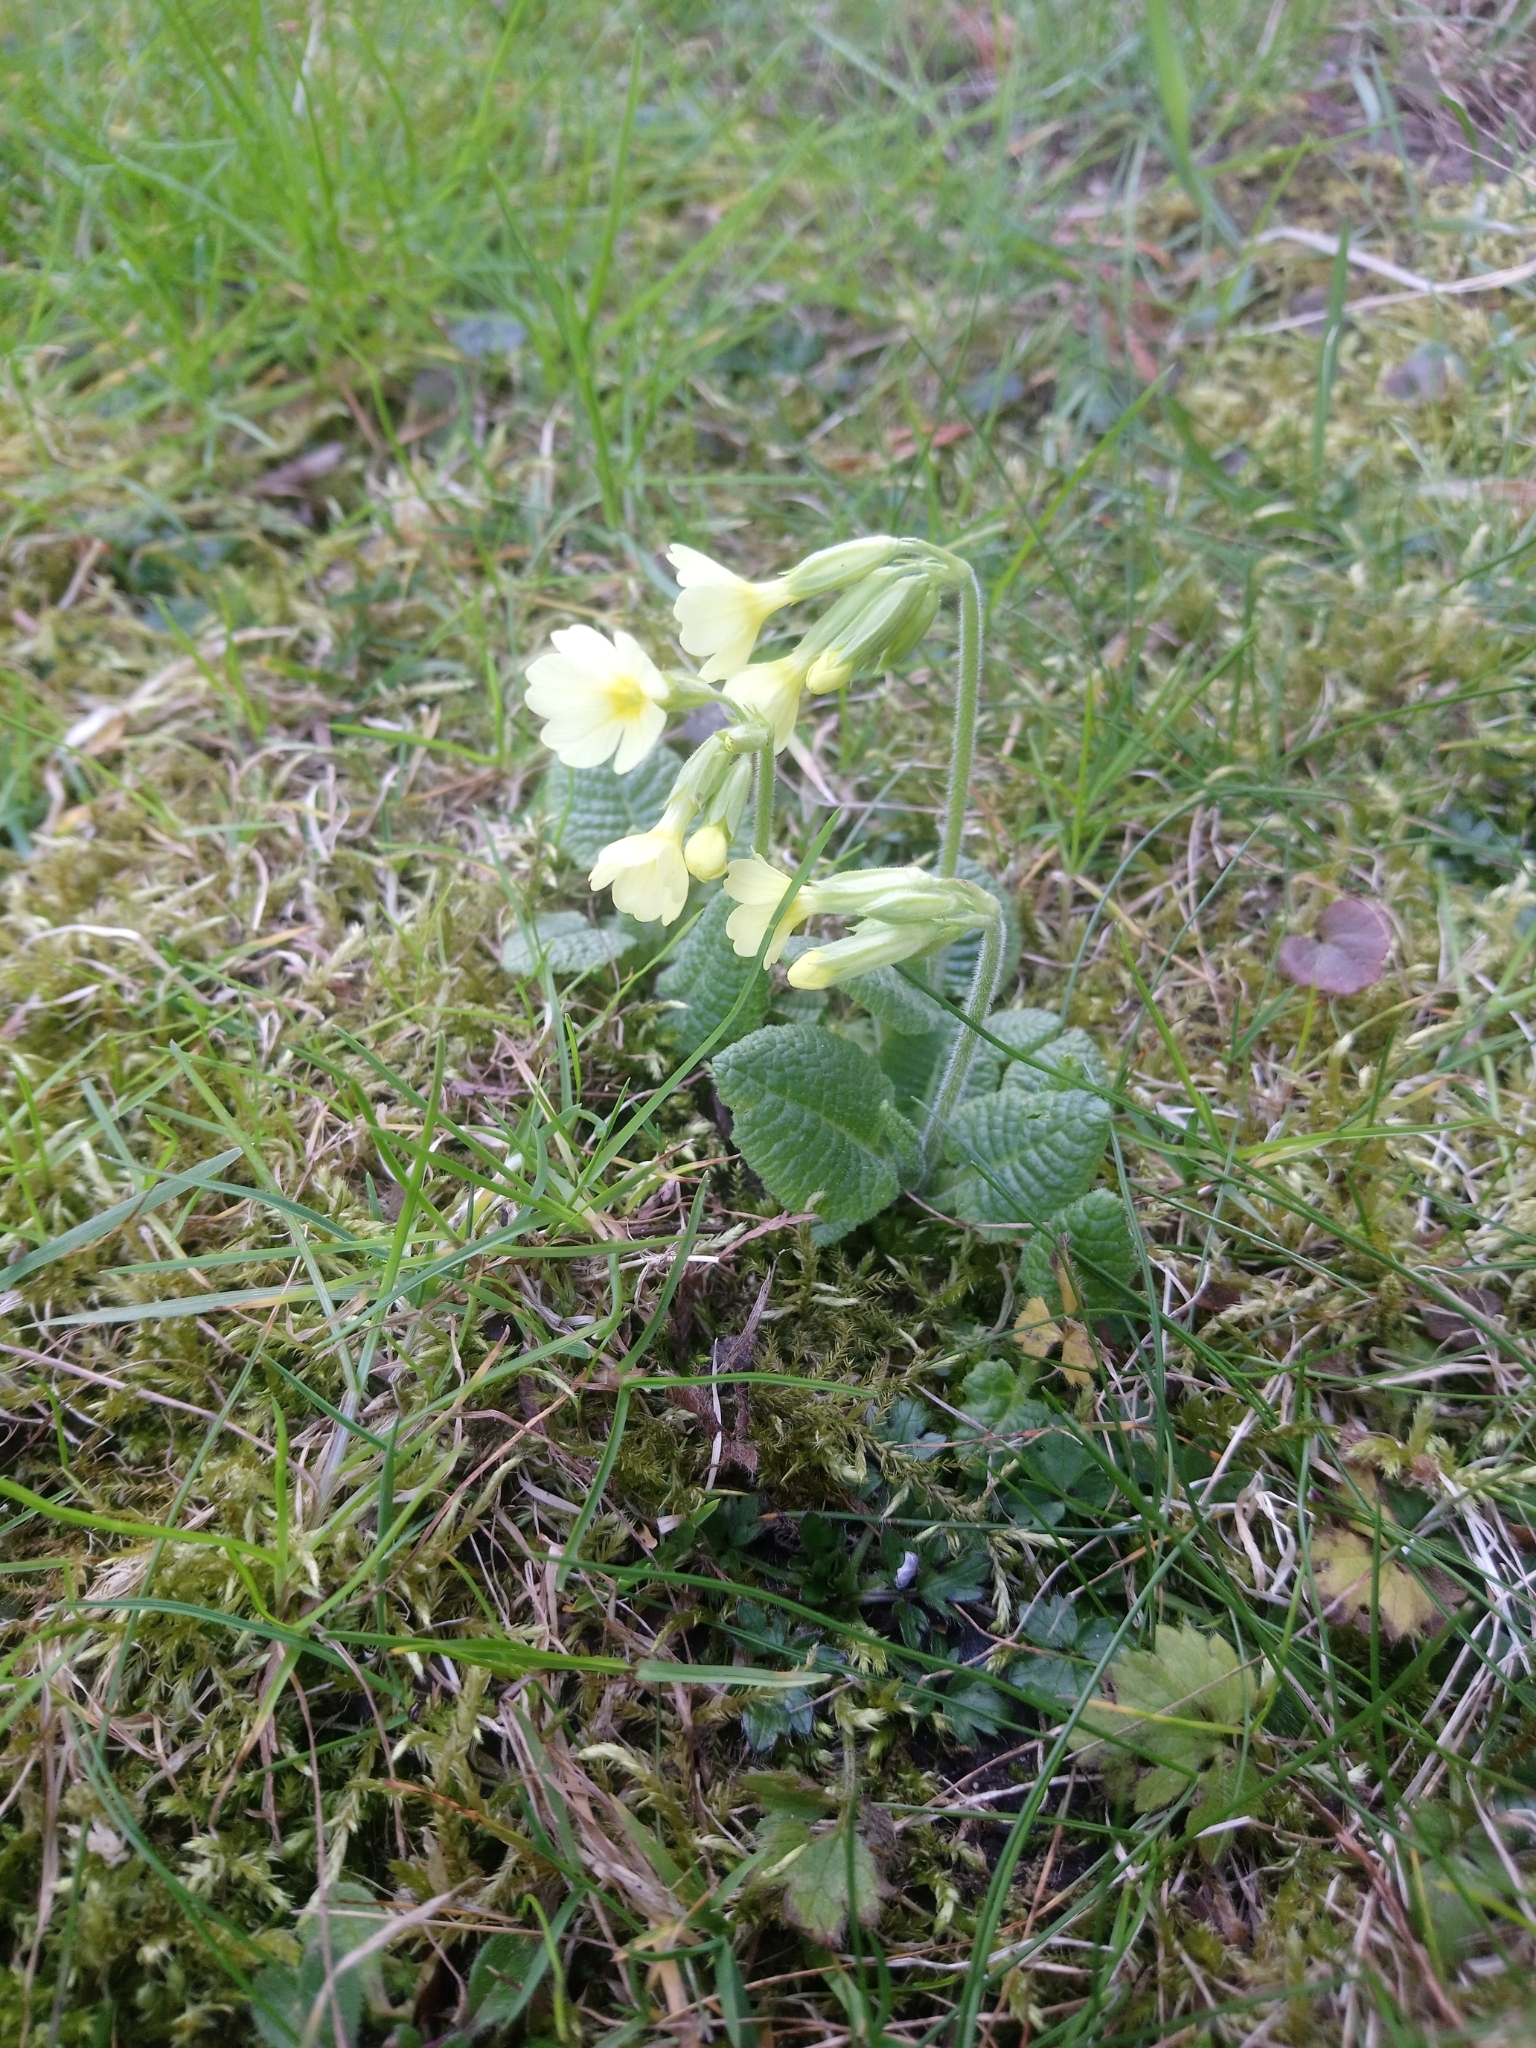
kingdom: Plantae
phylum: Tracheophyta
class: Magnoliopsida
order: Ericales
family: Primulaceae
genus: Primula
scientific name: Primula elatior
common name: Oxlip
